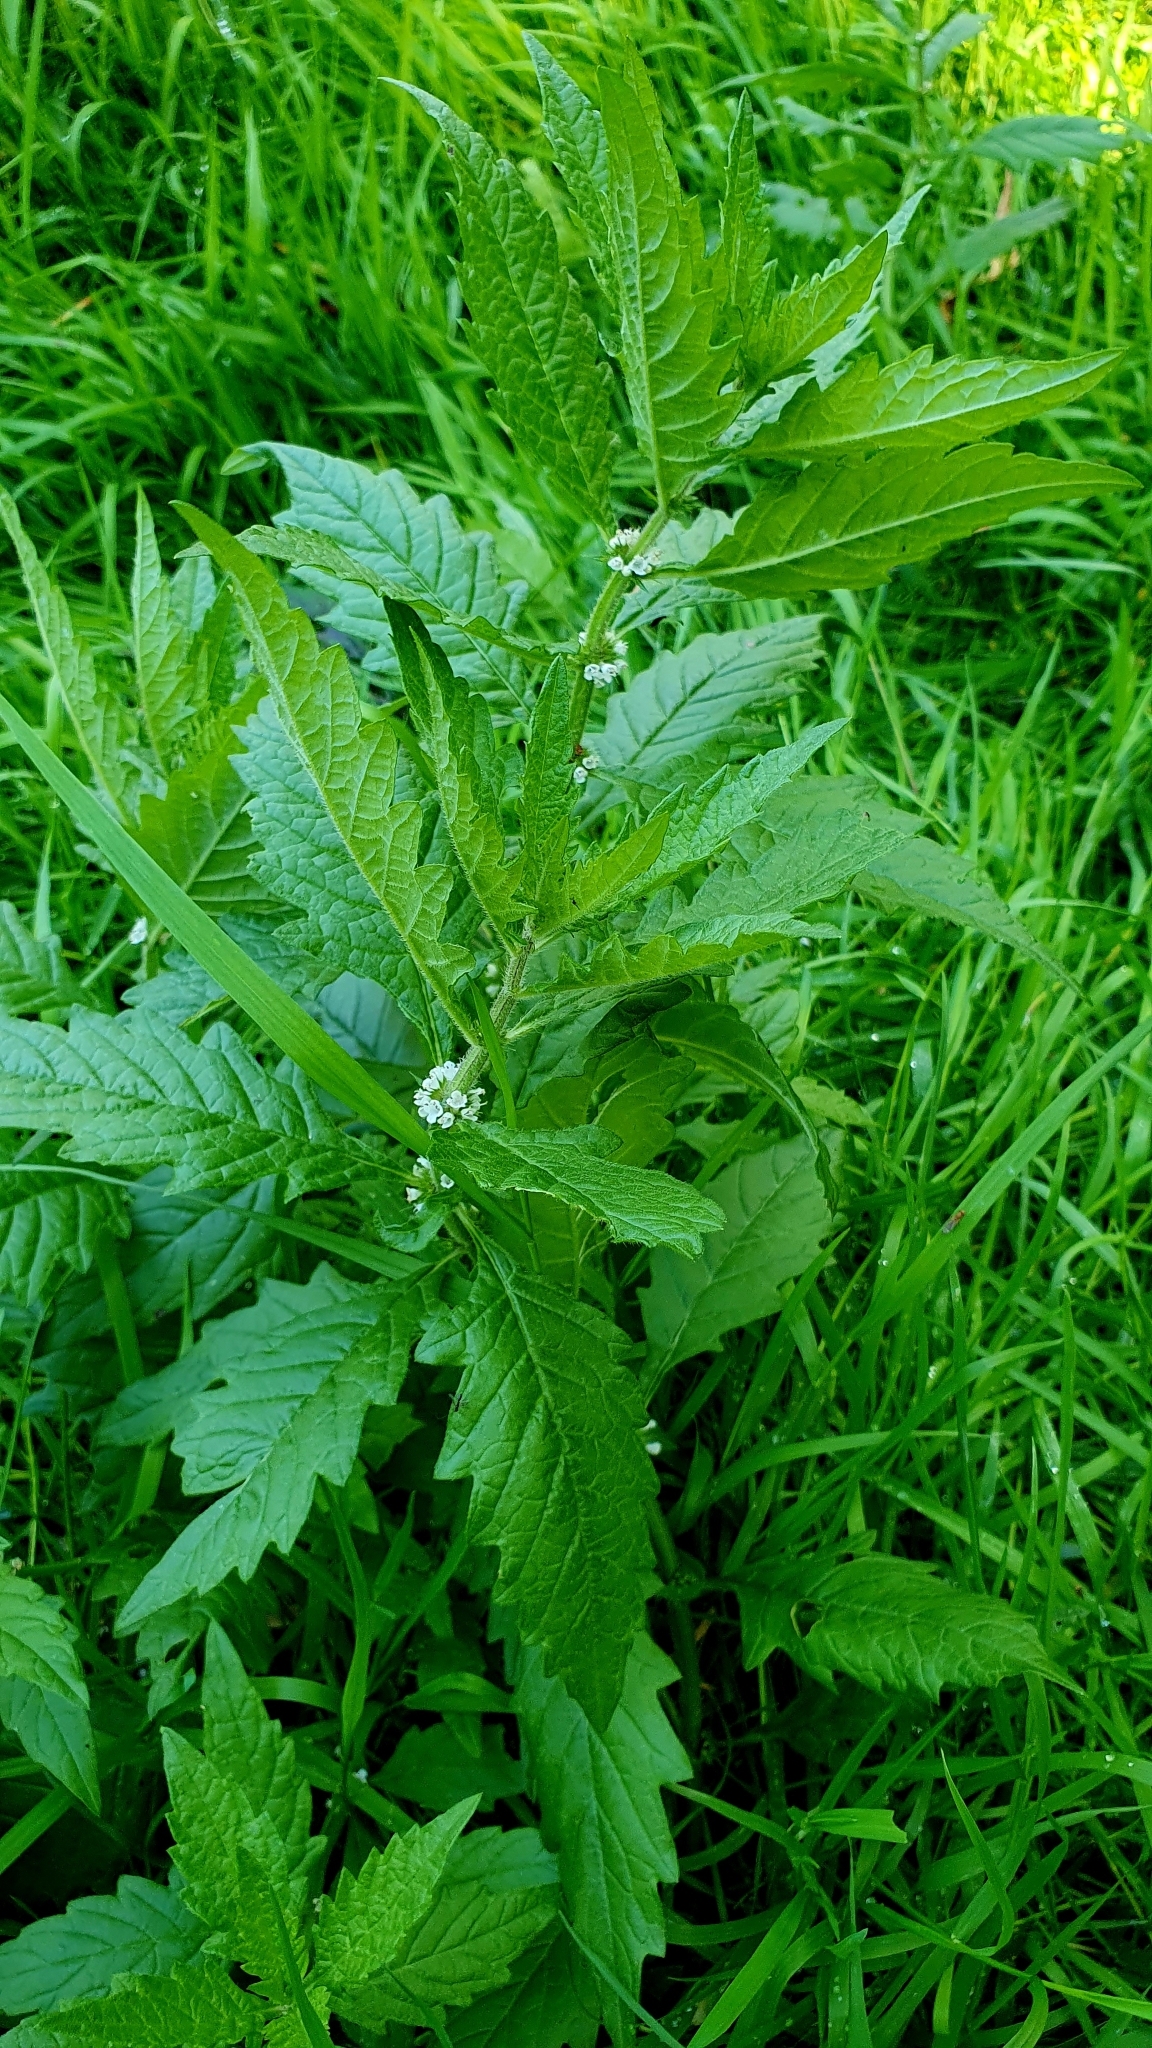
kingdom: Plantae
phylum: Tracheophyta
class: Magnoliopsida
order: Lamiales
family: Lamiaceae
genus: Lycopus
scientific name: Lycopus europaeus
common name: European bugleweed
